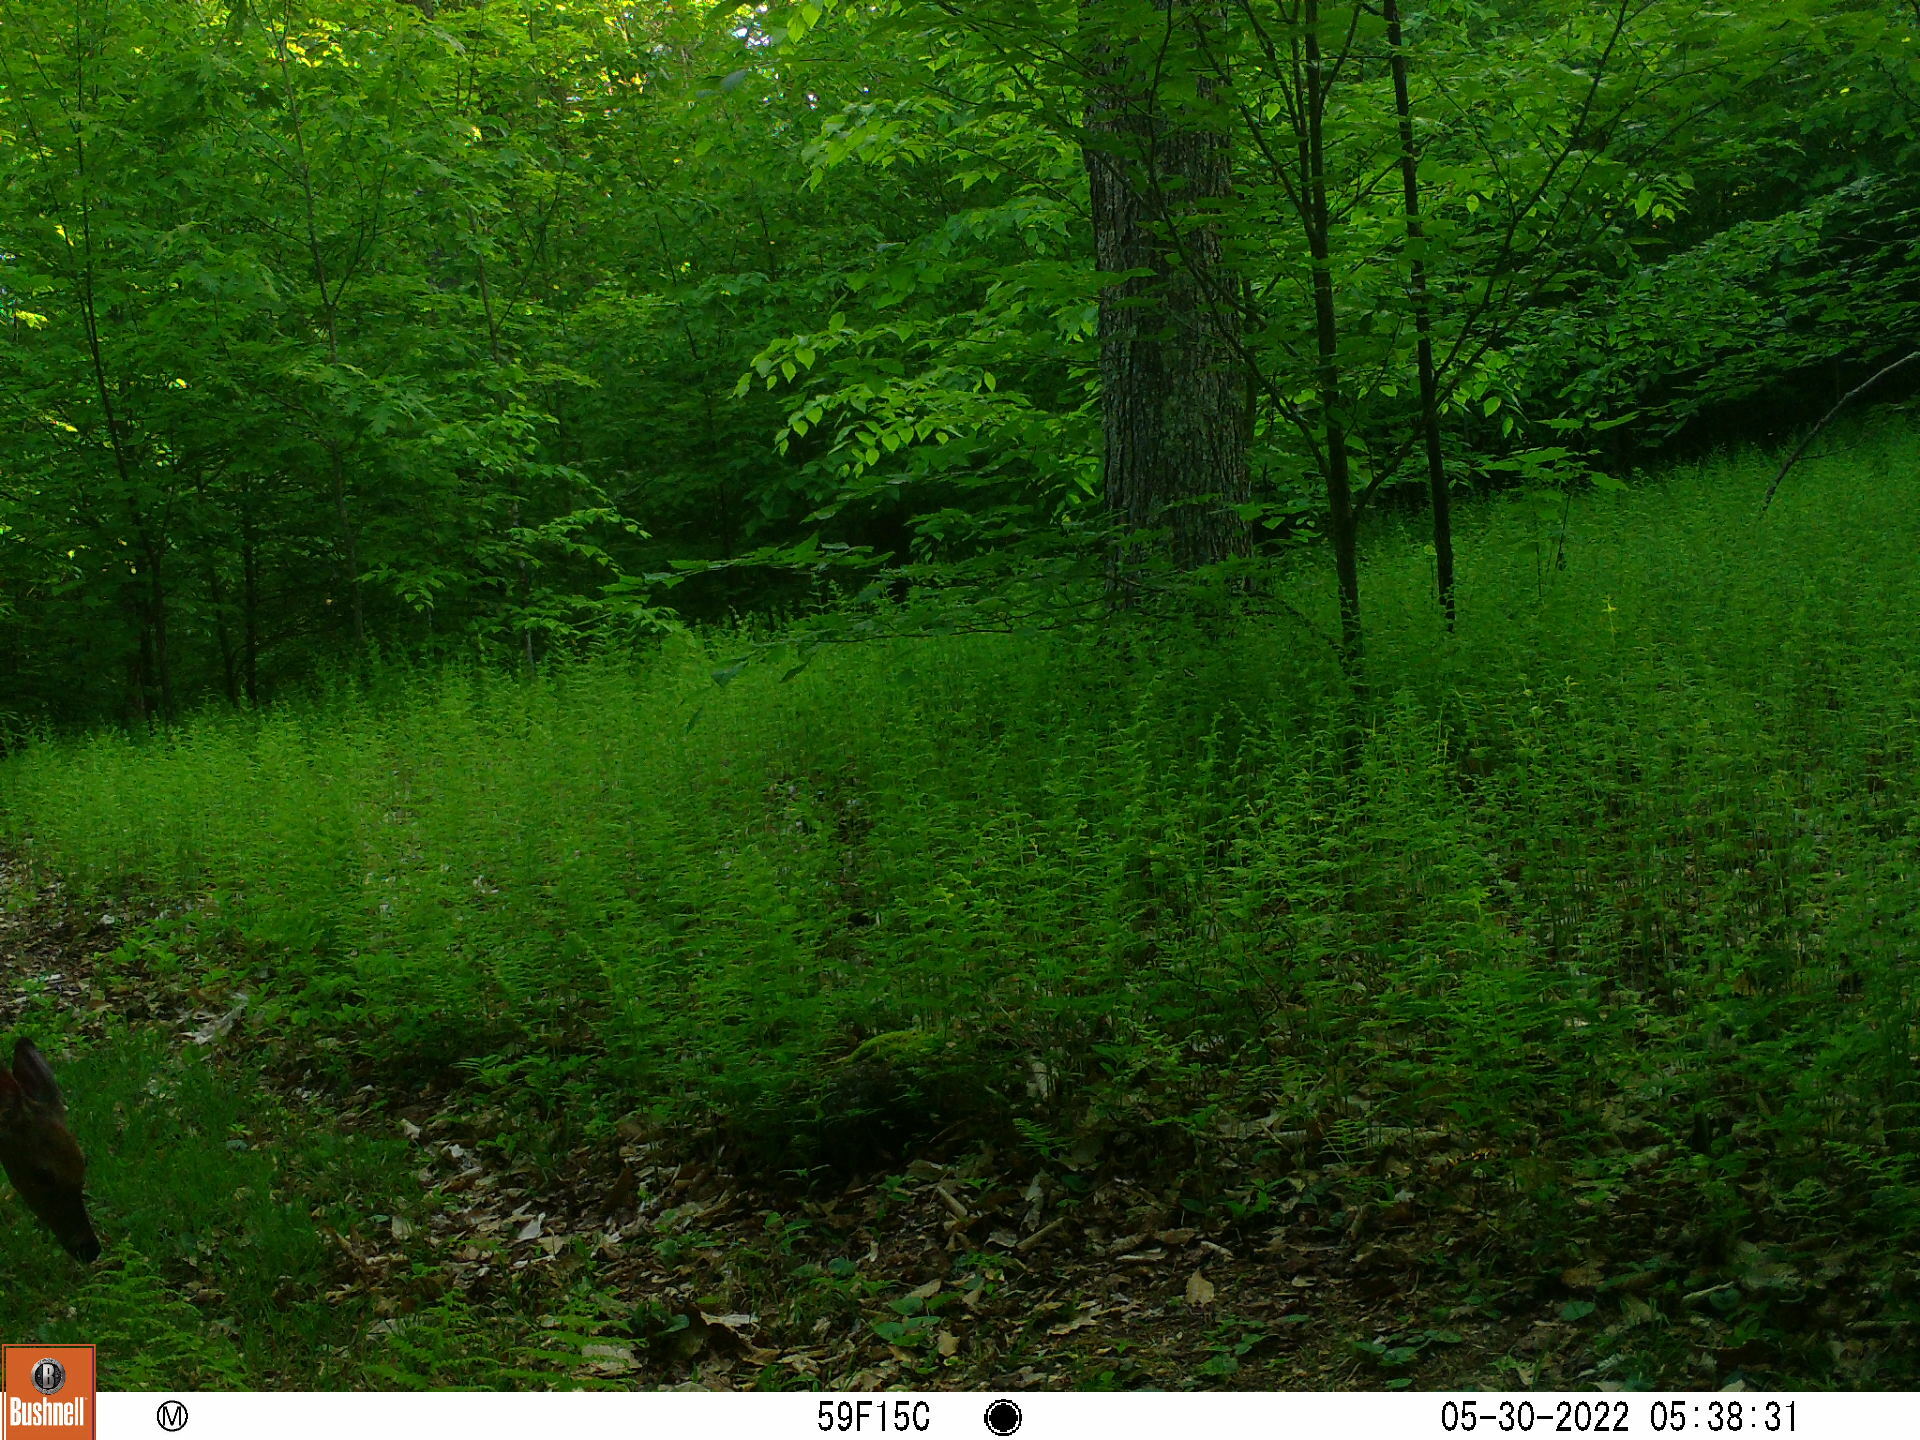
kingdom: Animalia
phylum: Chordata
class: Mammalia
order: Artiodactyla
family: Cervidae
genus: Odocoileus
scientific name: Odocoileus virginianus
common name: White-tailed deer
